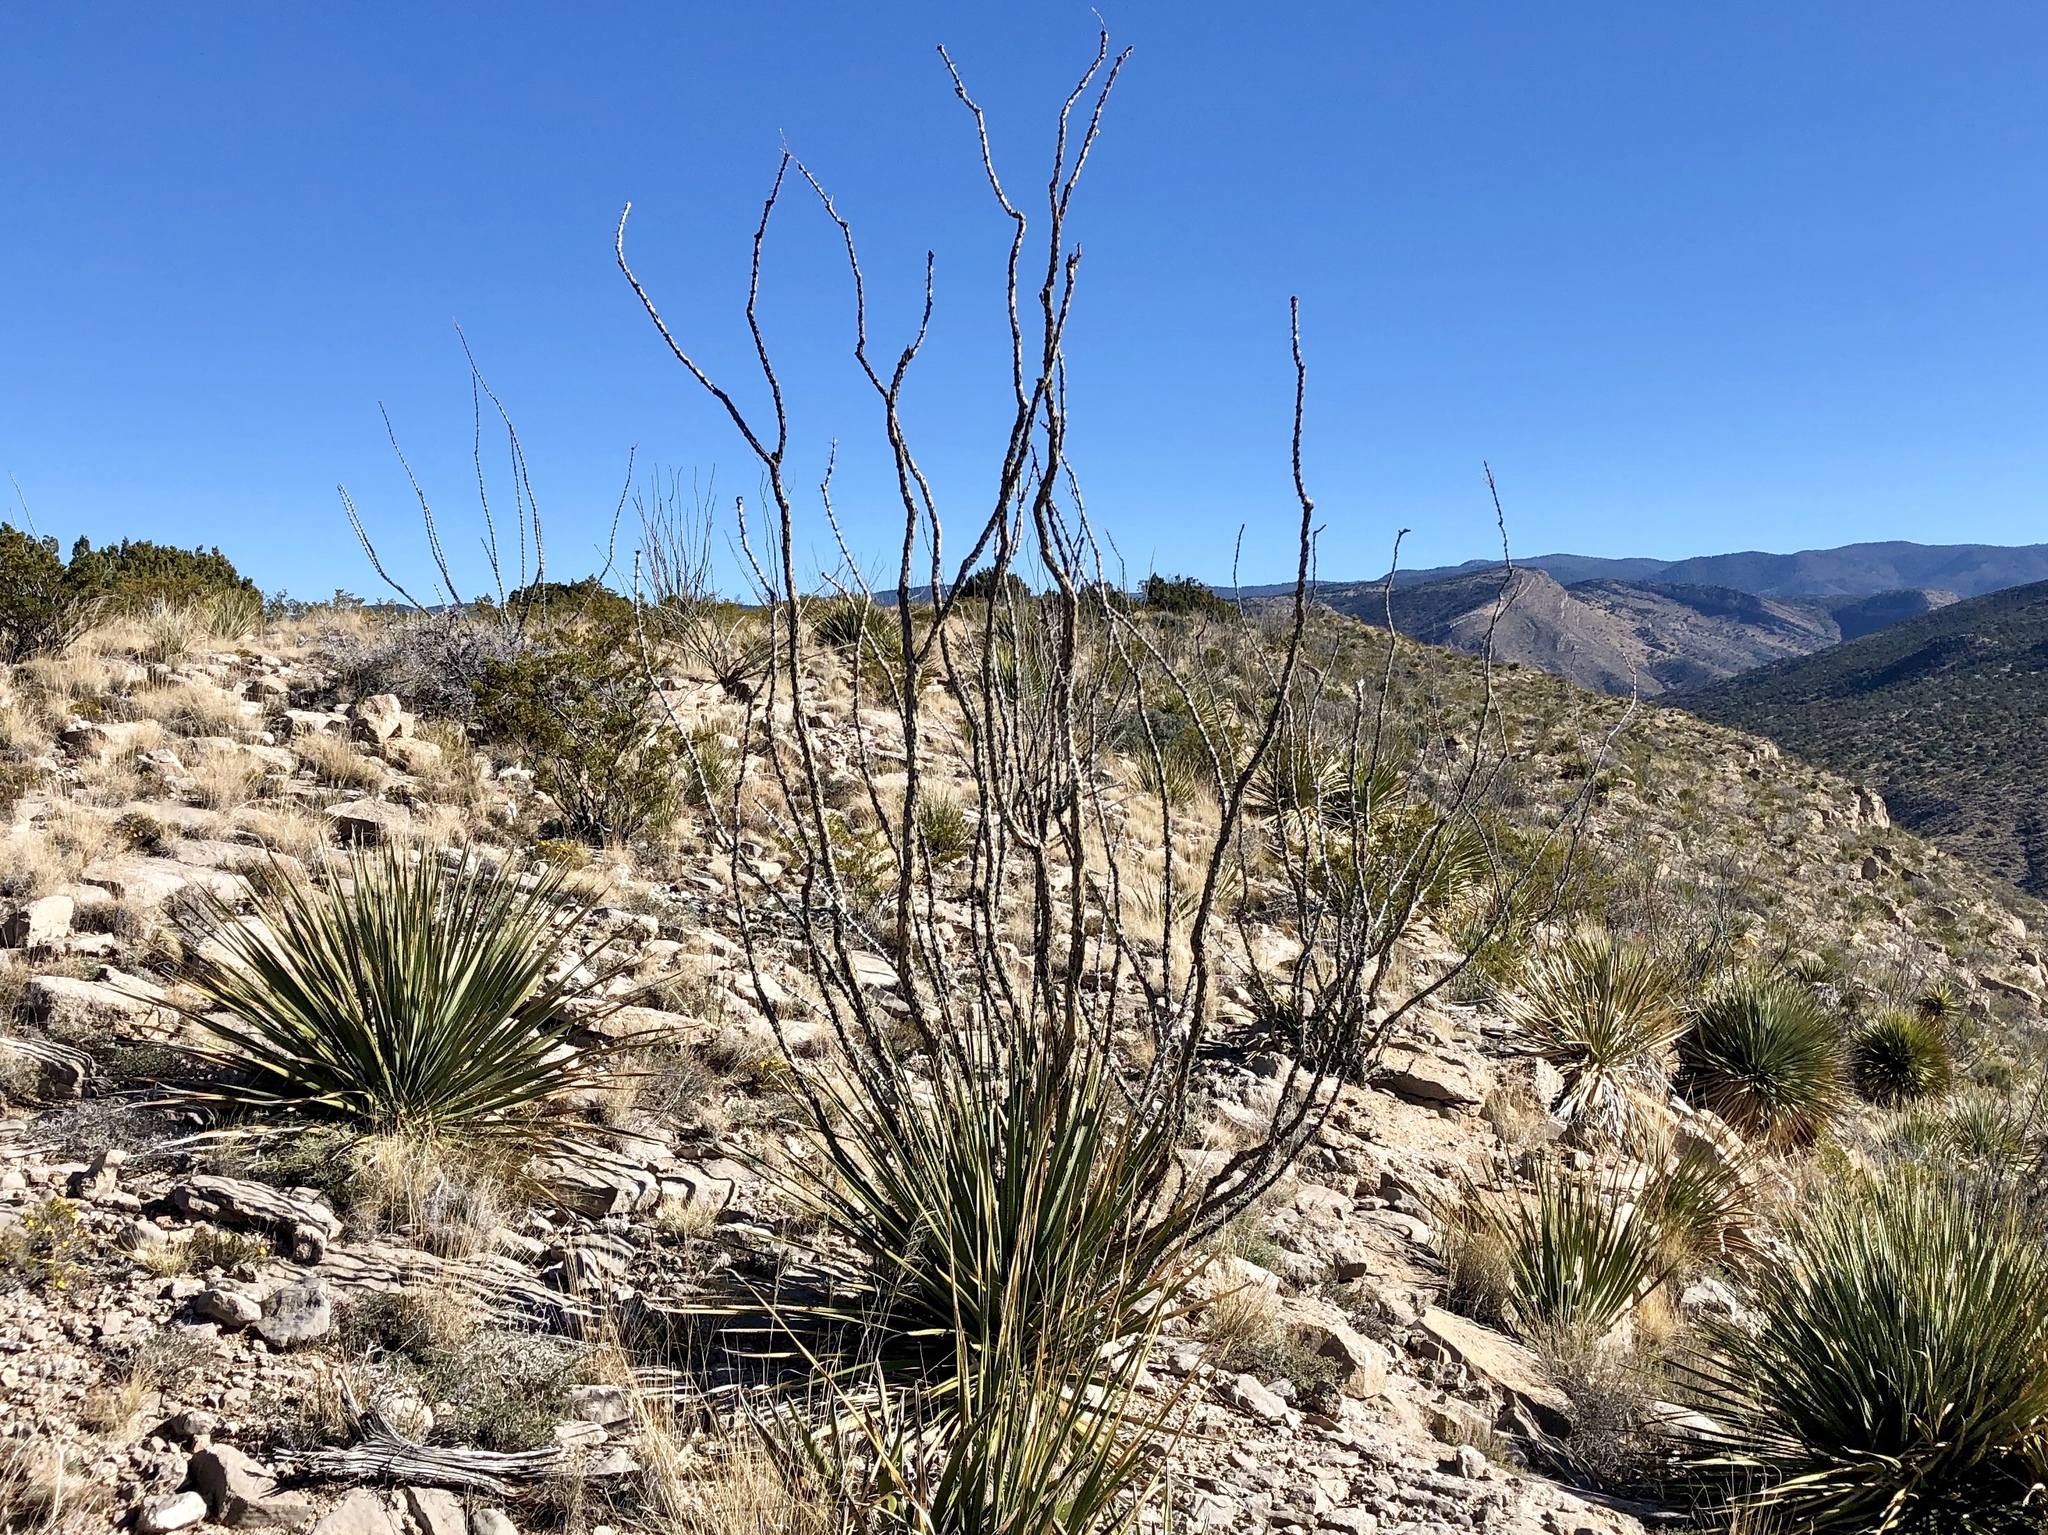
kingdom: Plantae
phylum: Tracheophyta
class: Magnoliopsida
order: Ericales
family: Fouquieriaceae
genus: Fouquieria
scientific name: Fouquieria splendens
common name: Vine-cactus
